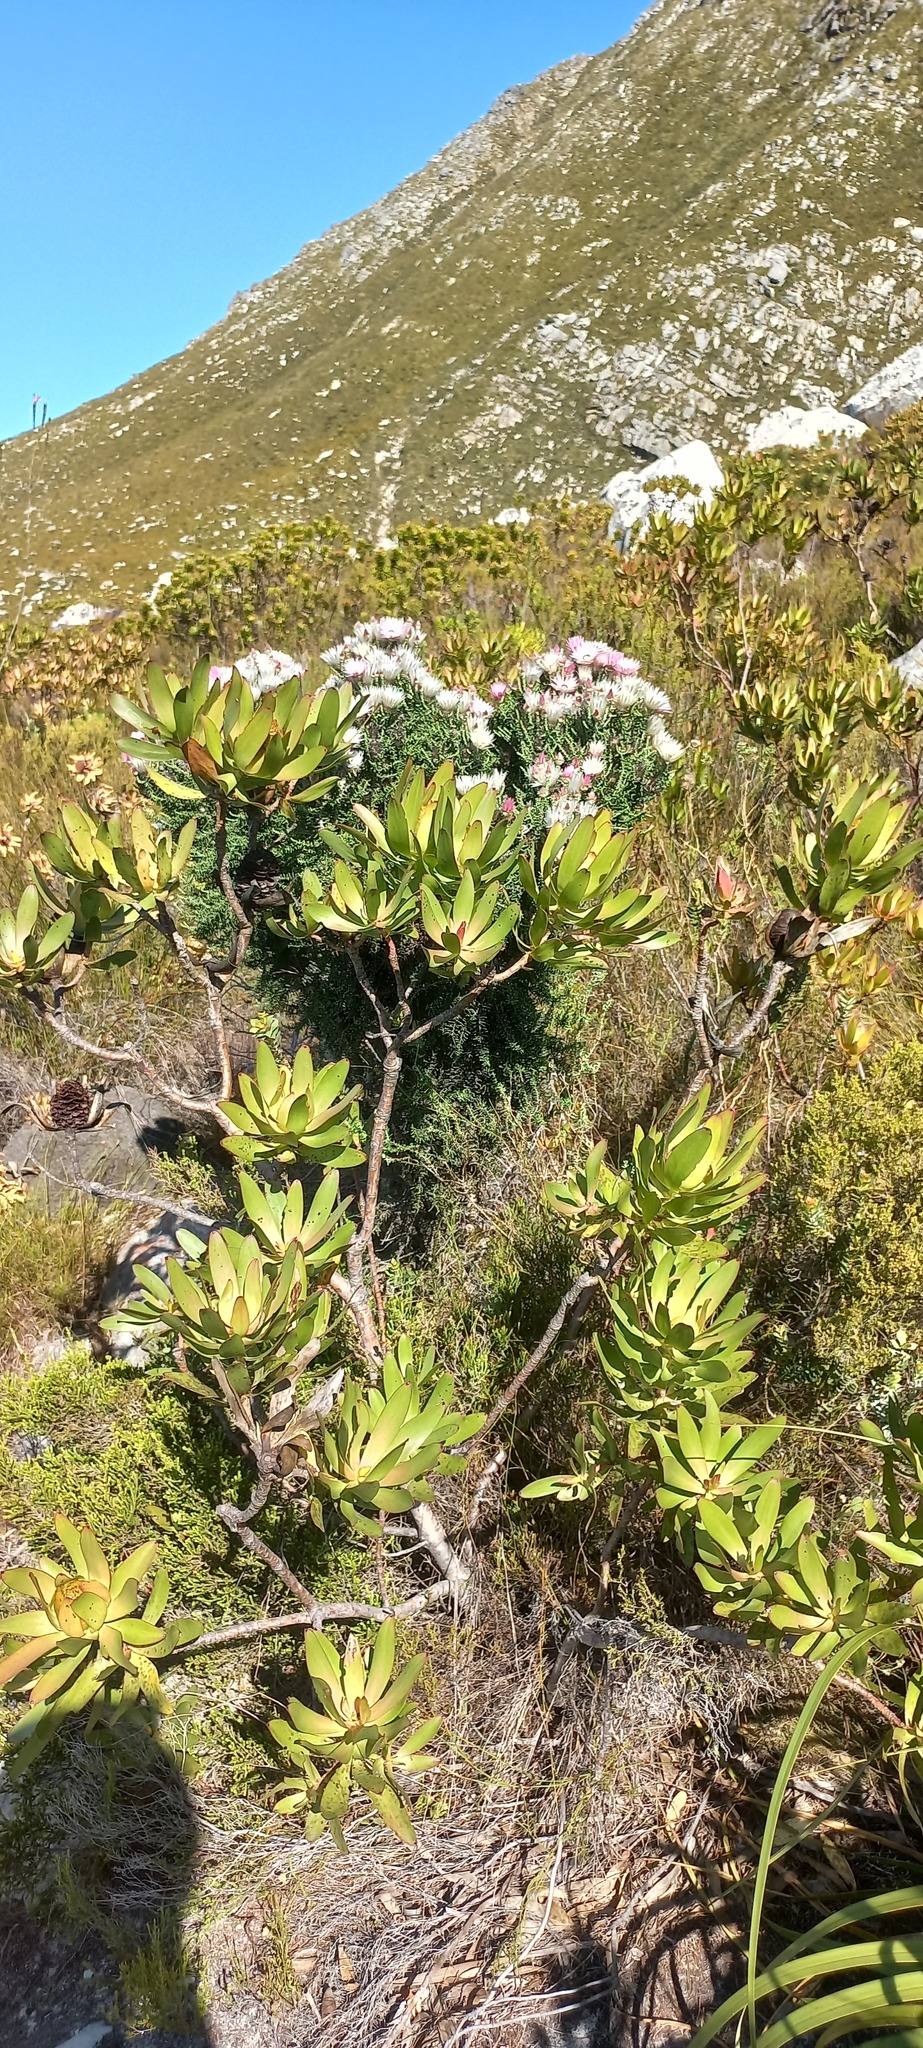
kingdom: Plantae
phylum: Tracheophyta
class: Magnoliopsida
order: Proteales
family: Proteaceae
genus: Leucadendron
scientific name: Leucadendron gandogeri
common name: Broad-leaf conebush
